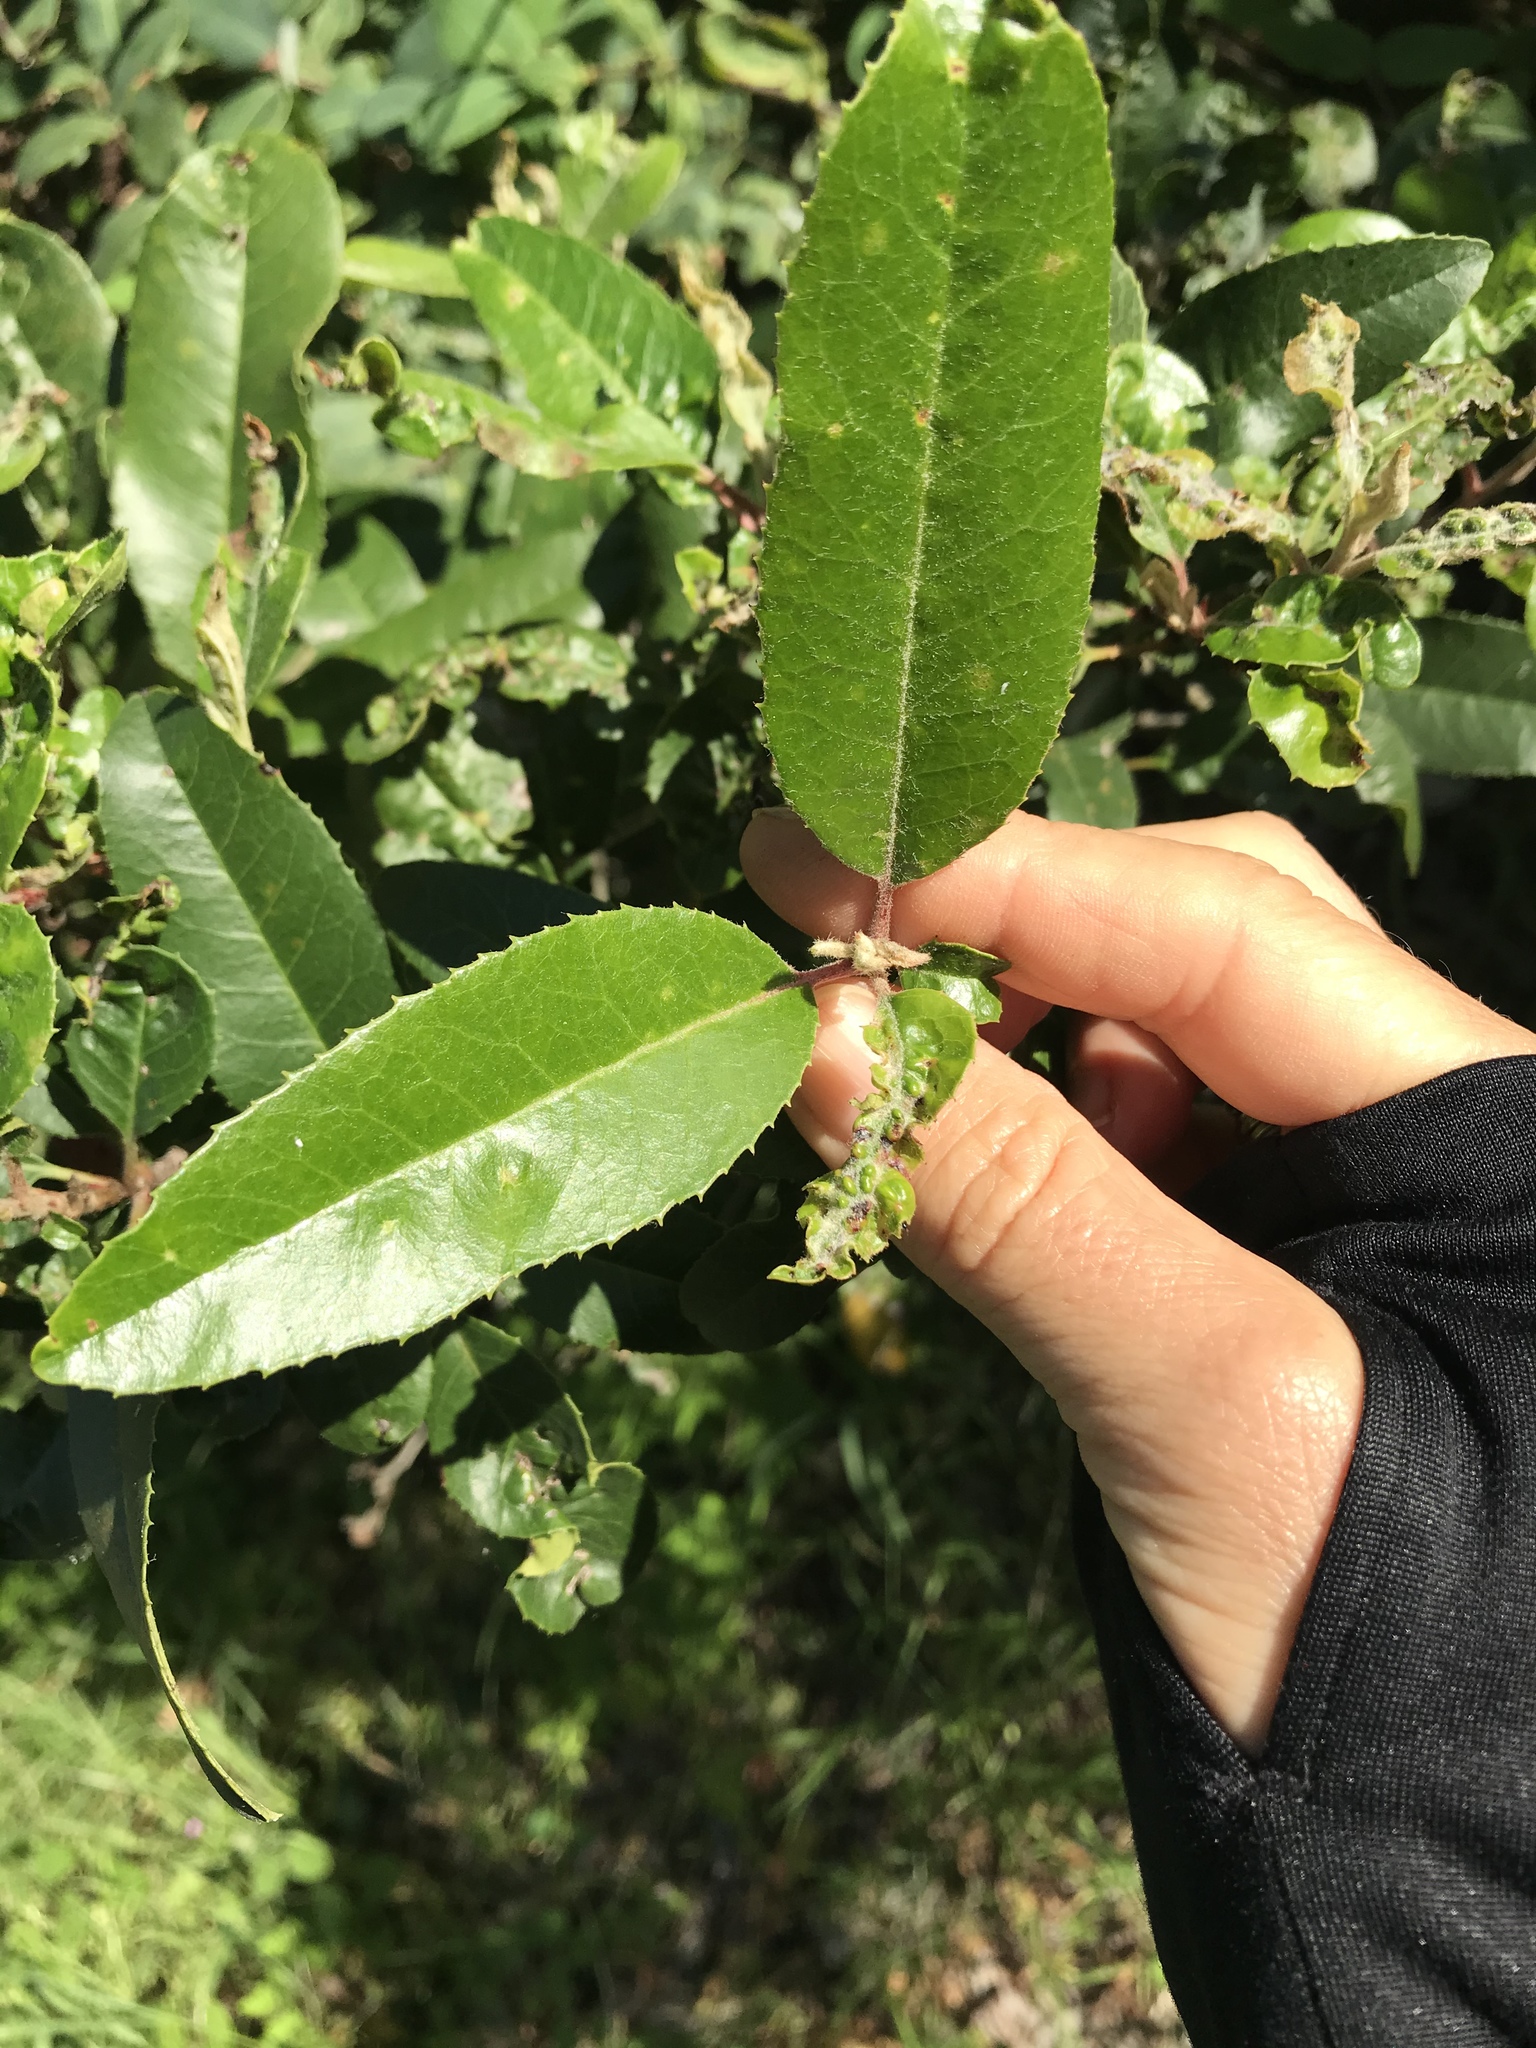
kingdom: Animalia
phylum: Arthropoda
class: Insecta
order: Thysanoptera
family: Phlaeothripidae
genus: Liothrips
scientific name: Liothrips ilex
